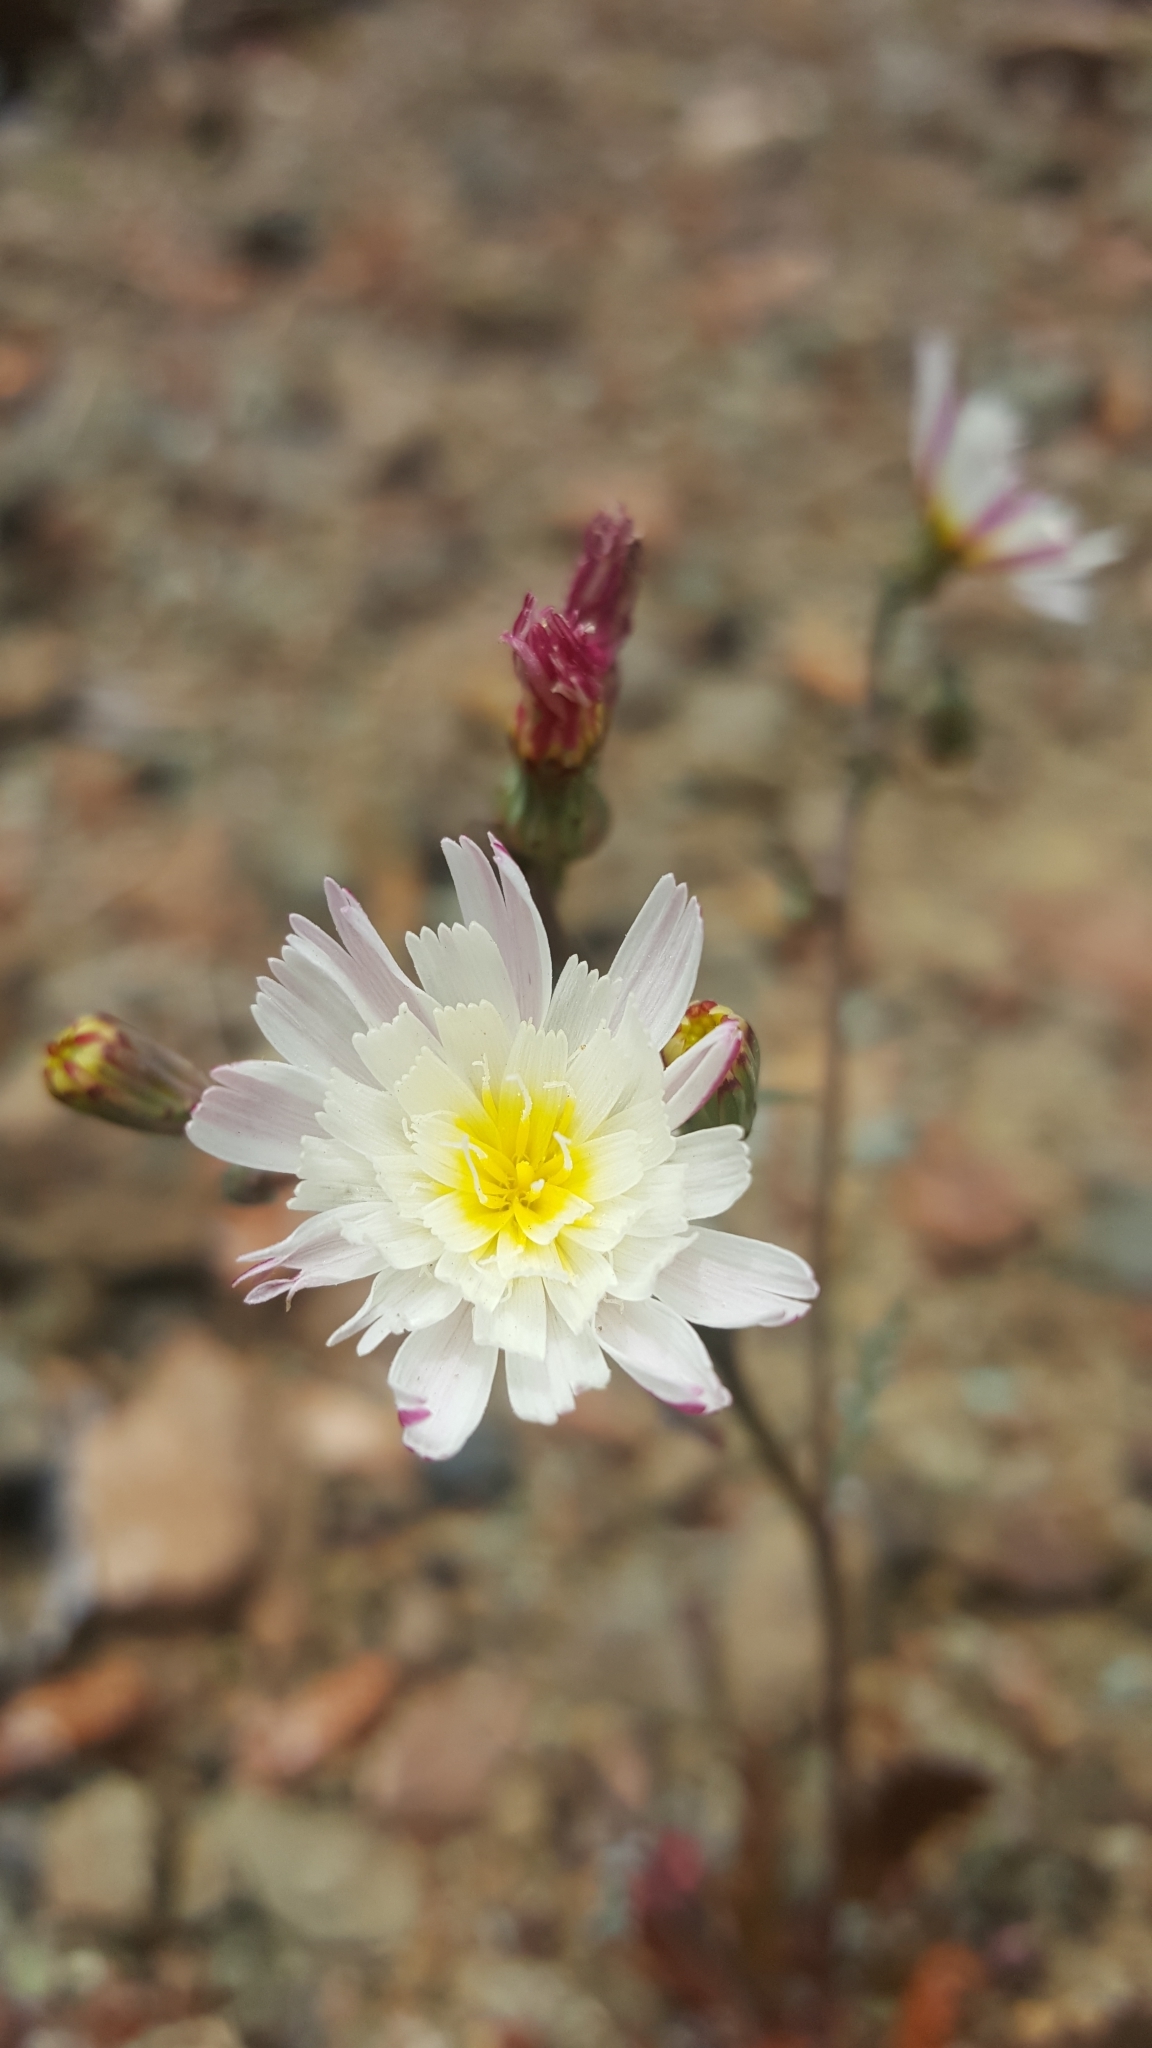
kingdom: Plantae
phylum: Tracheophyta
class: Magnoliopsida
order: Asterales
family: Asteraceae
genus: Malacothrix
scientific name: Malacothrix floccifera
